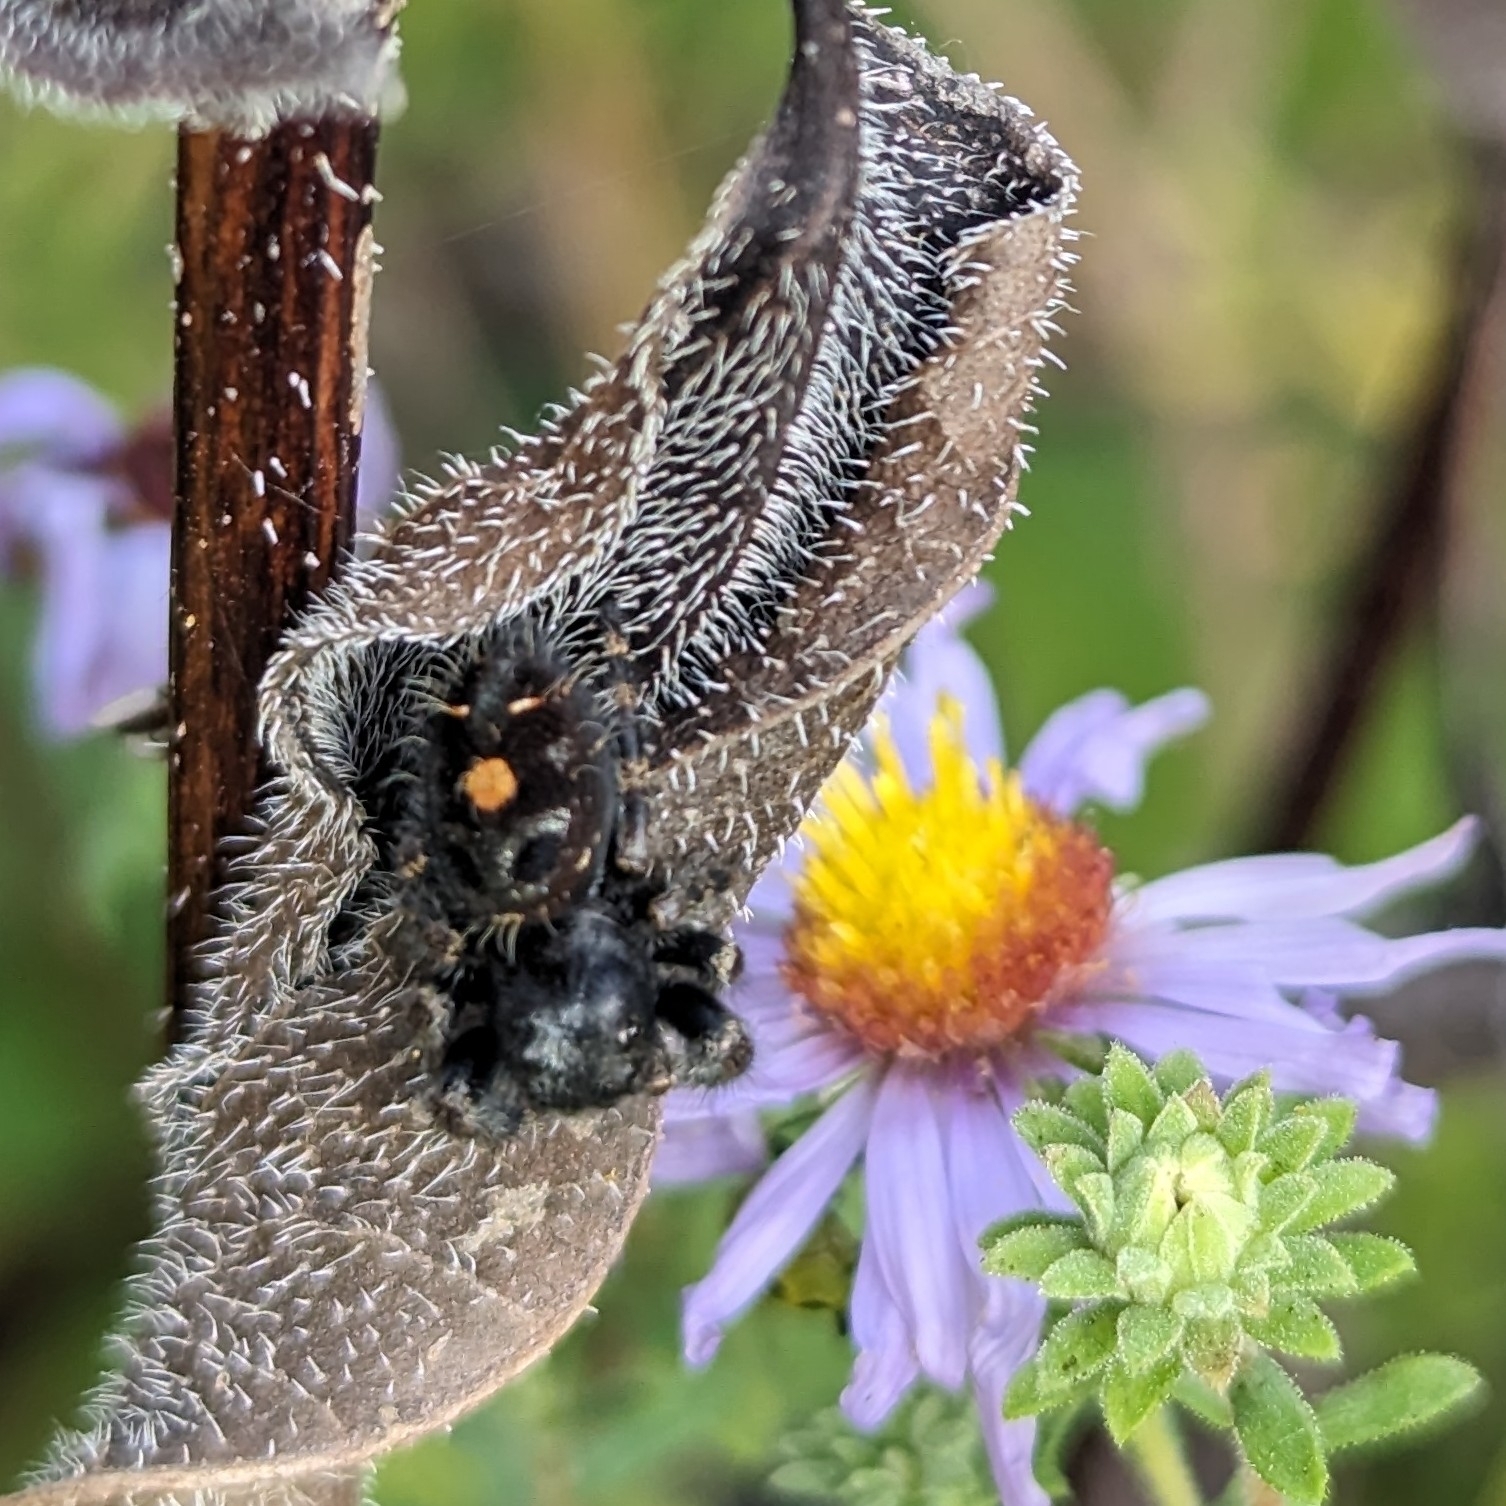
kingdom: Animalia
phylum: Arthropoda
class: Arachnida
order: Araneae
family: Salticidae
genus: Phidippus
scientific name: Phidippus audax
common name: Bold jumper
